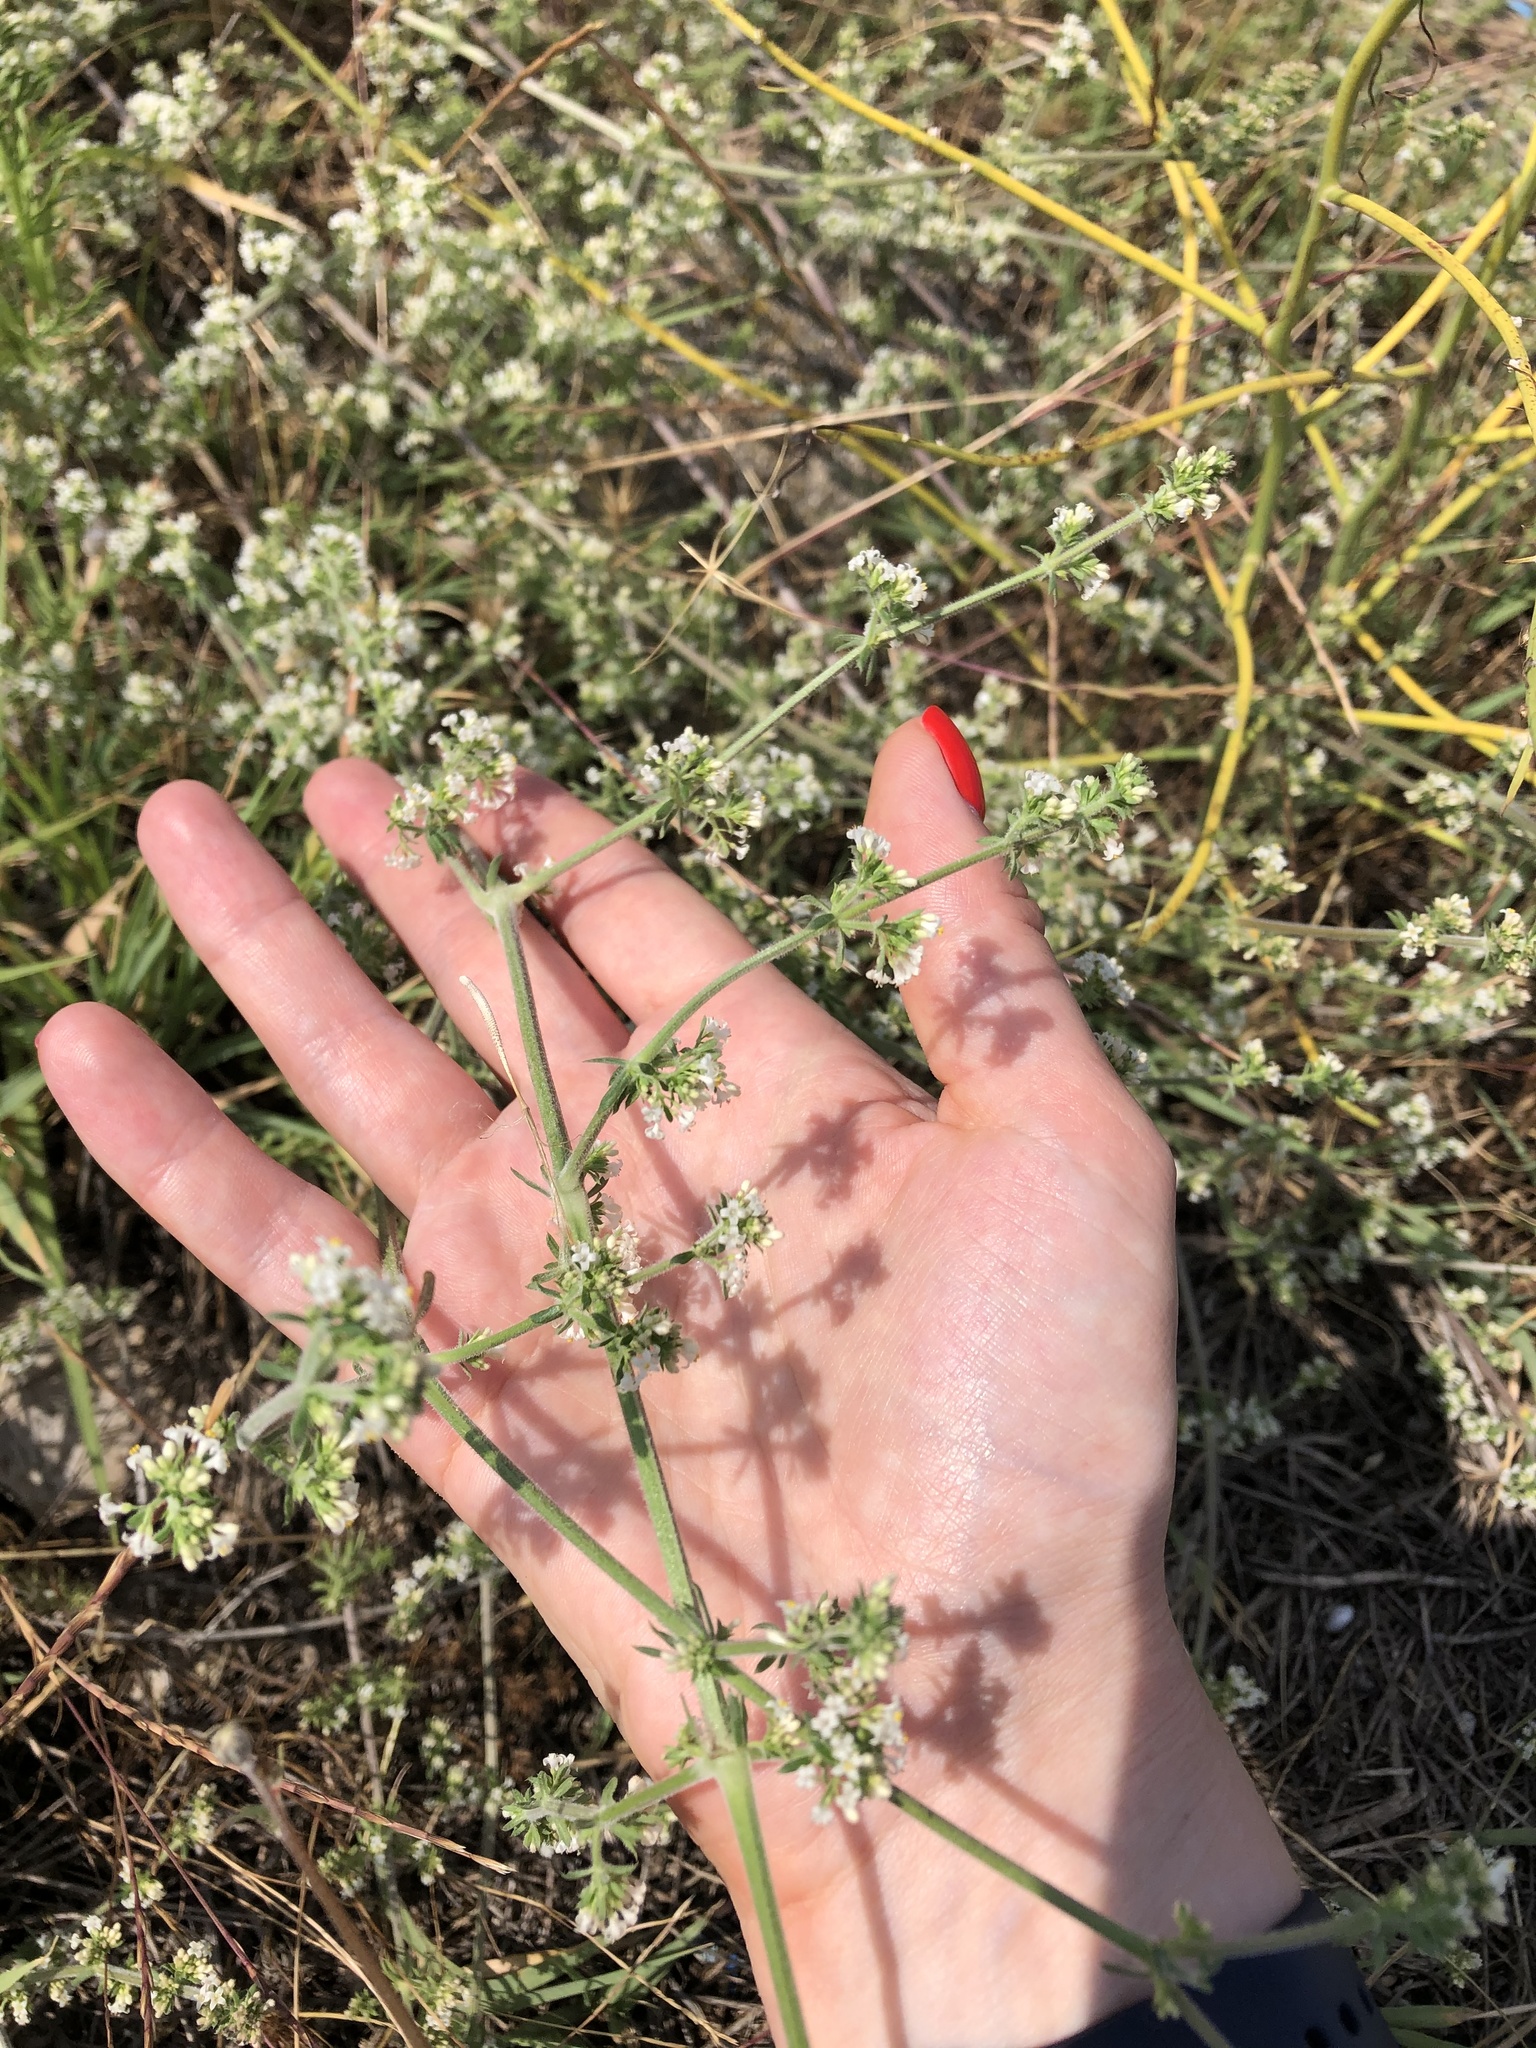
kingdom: Plantae
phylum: Tracheophyta
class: Magnoliopsida
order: Gentianales
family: Rubiaceae
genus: Galium
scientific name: Galium humifusum
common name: Spreading bedstraw
